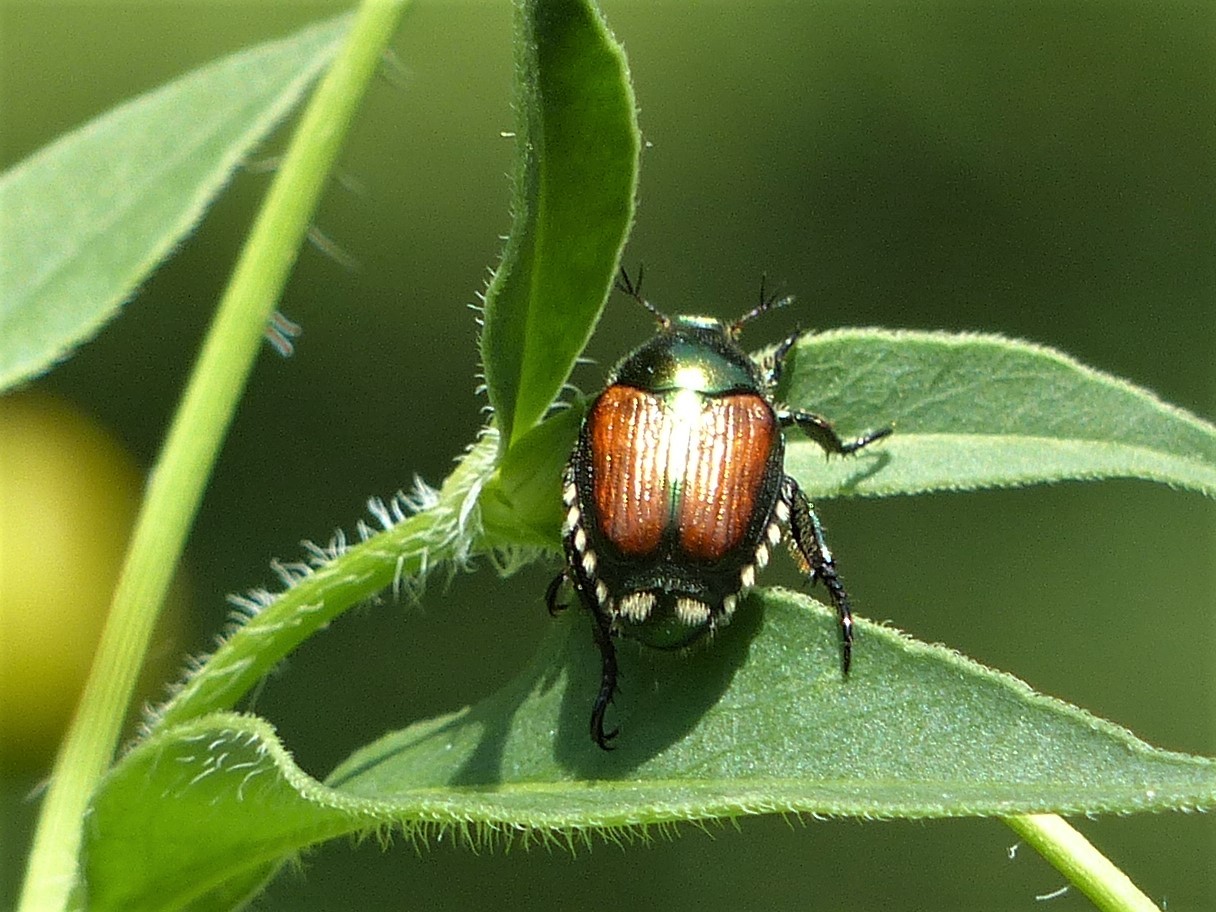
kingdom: Animalia
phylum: Arthropoda
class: Insecta
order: Coleoptera
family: Scarabaeidae
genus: Popillia
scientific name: Popillia japonica
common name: Japanese beetle
